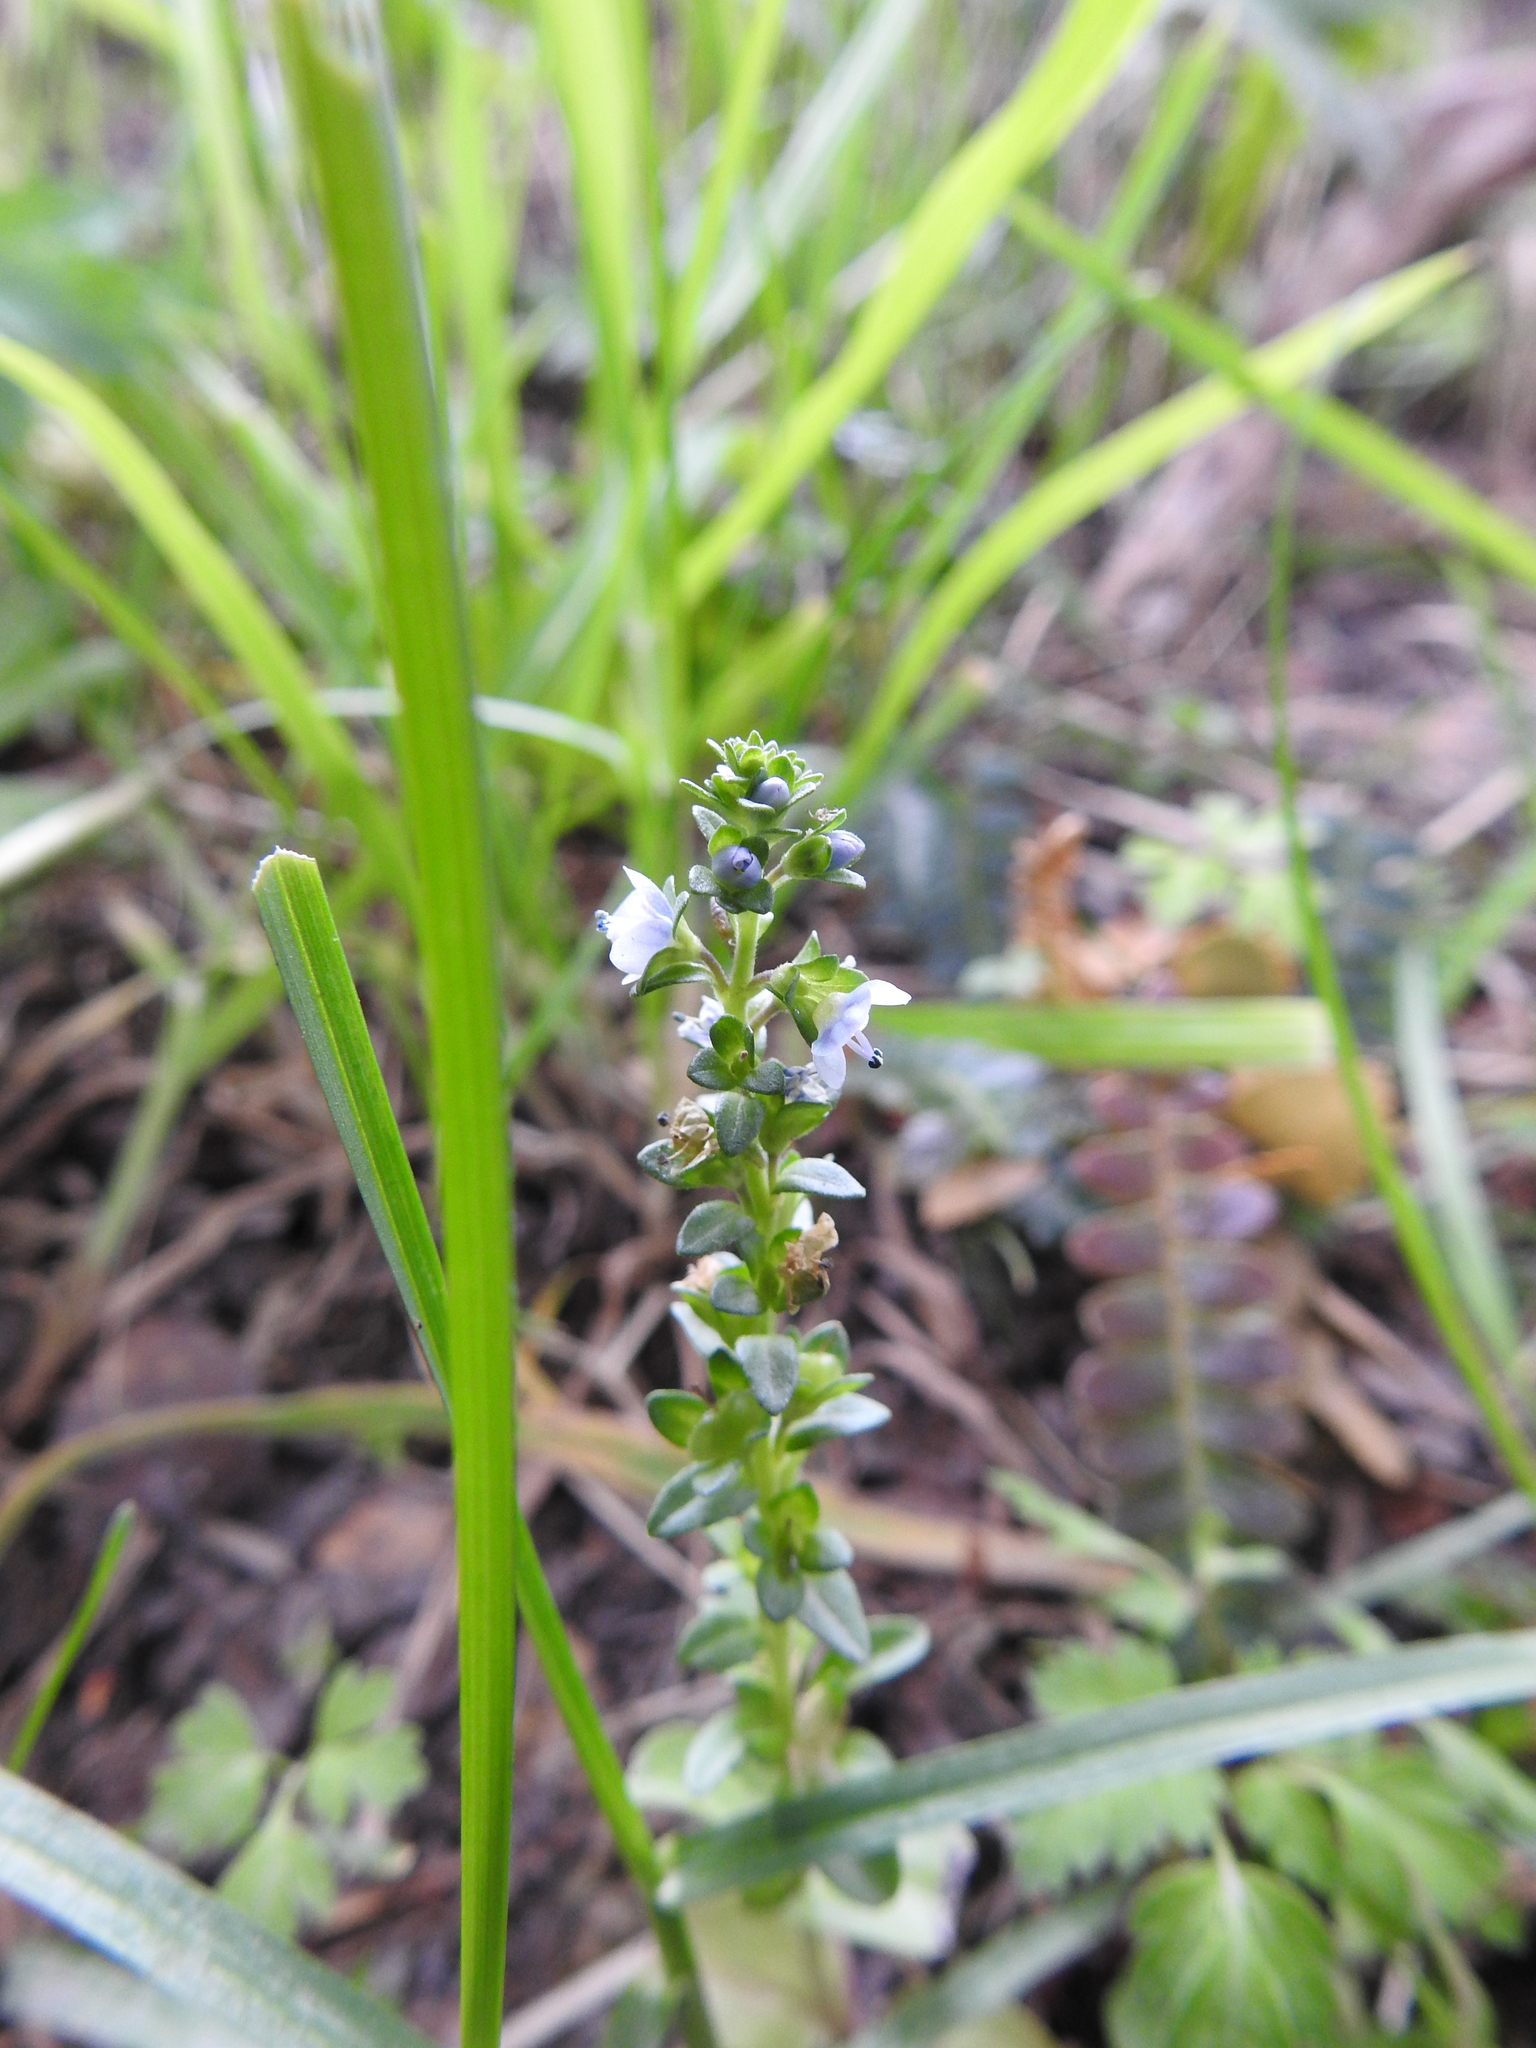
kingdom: Plantae
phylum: Tracheophyta
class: Magnoliopsida
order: Lamiales
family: Plantaginaceae
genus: Veronica
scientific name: Veronica serpyllifolia
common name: Thyme-leaved speedwell
